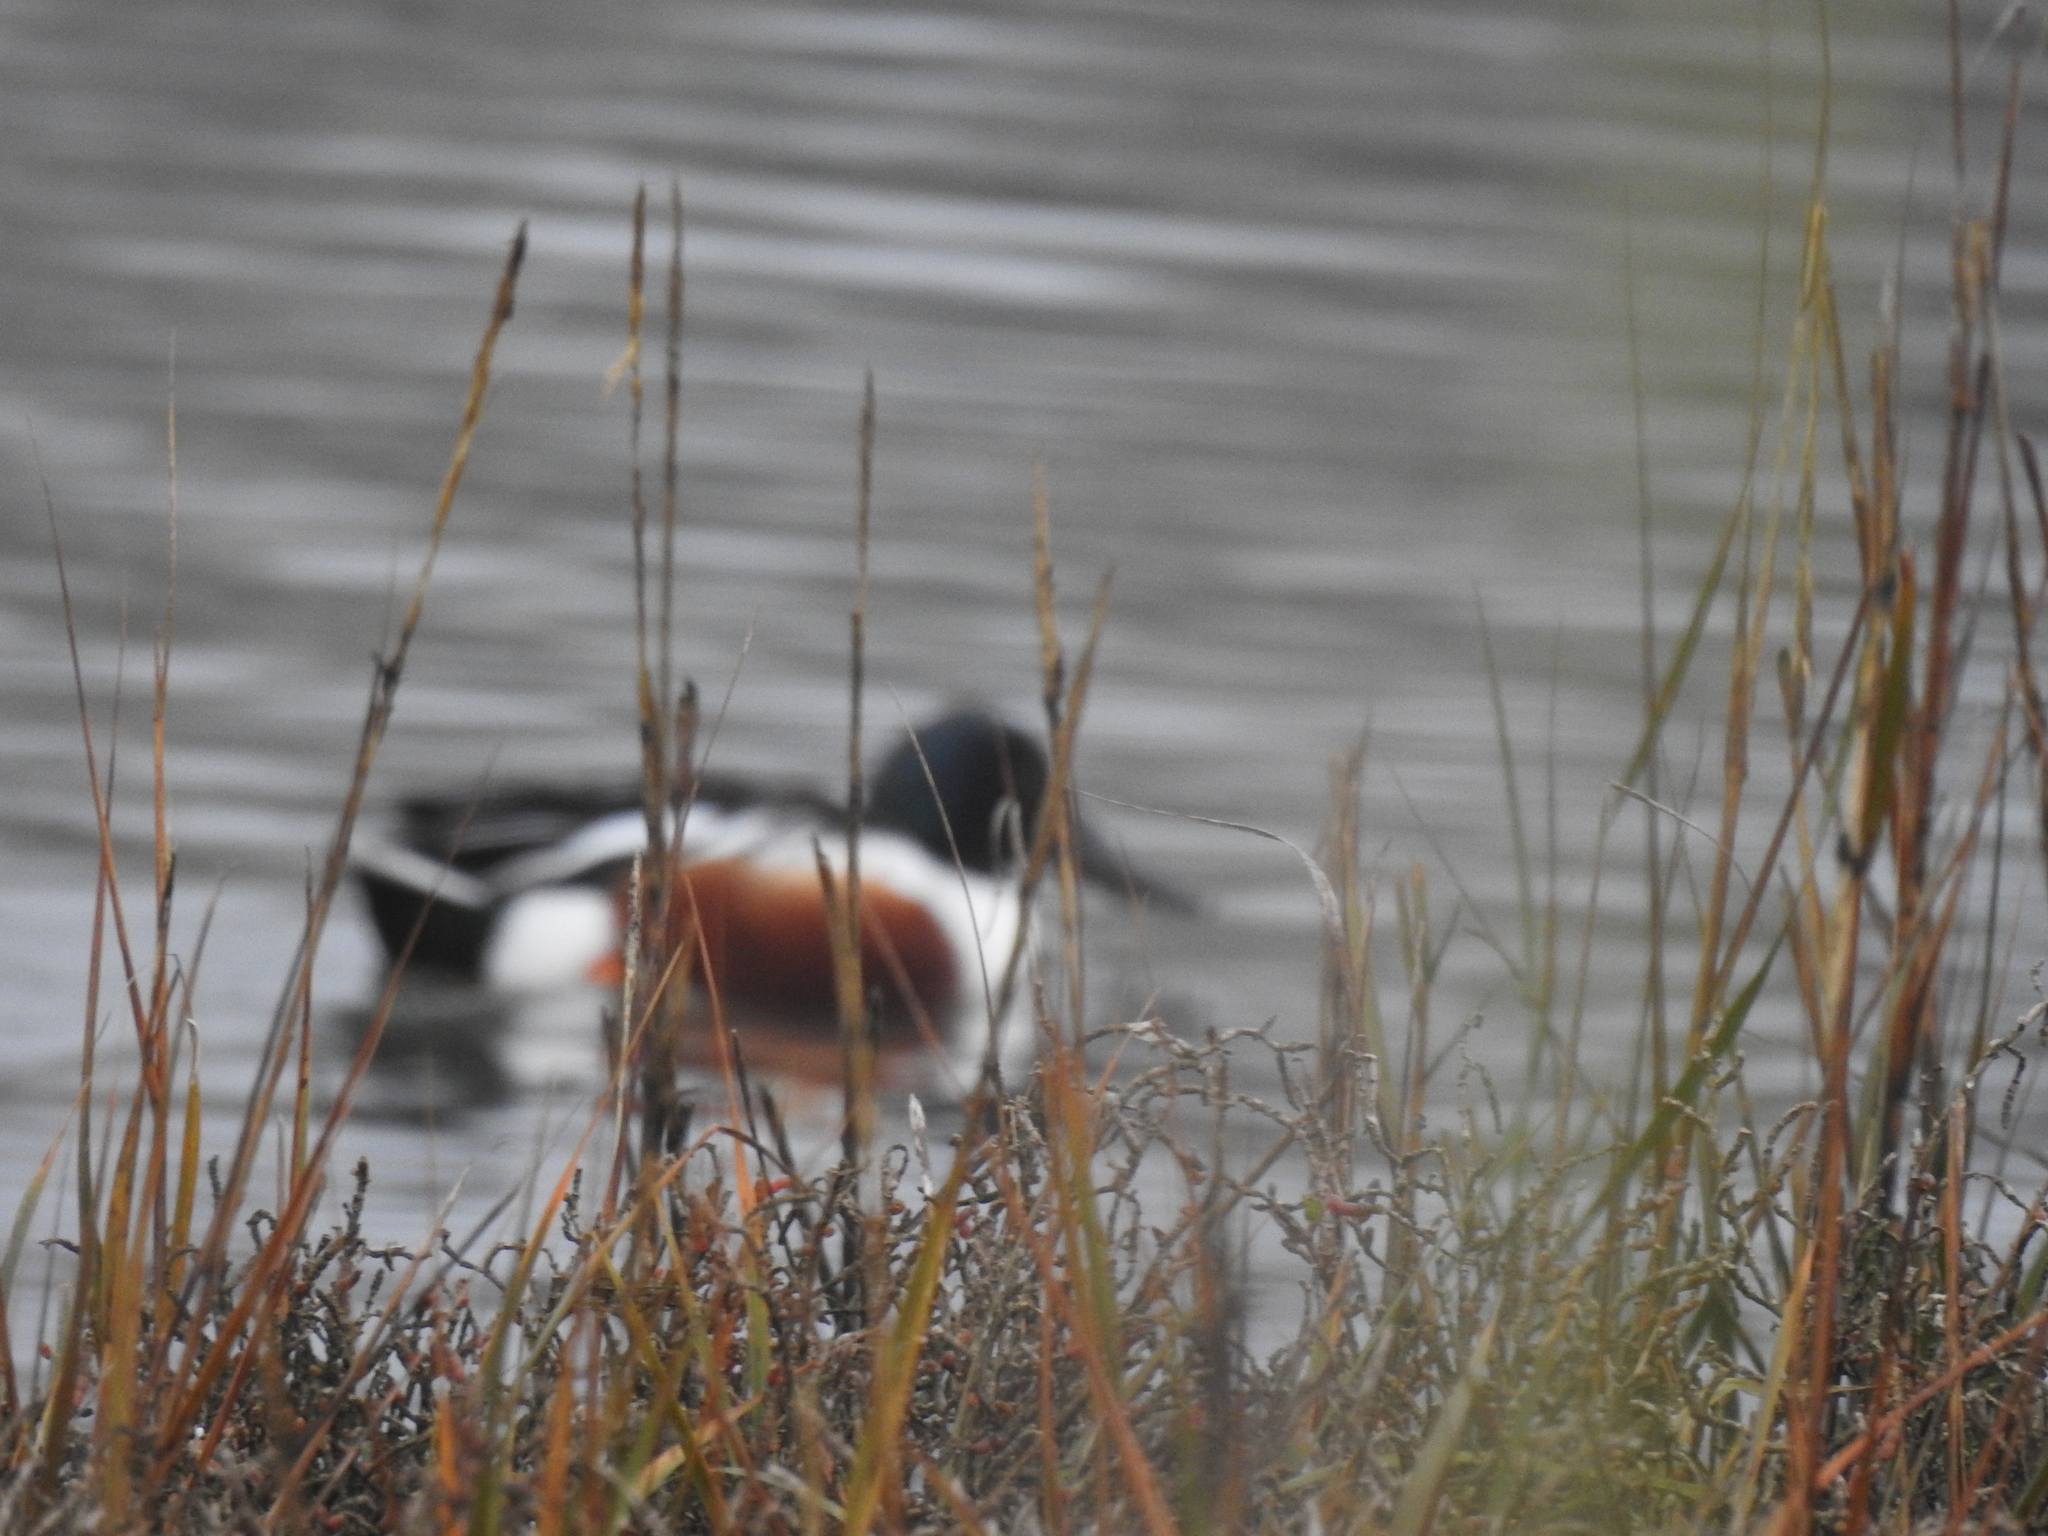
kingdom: Animalia
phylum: Chordata
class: Aves
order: Anseriformes
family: Anatidae
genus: Spatula
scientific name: Spatula clypeata
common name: Northern shoveler
